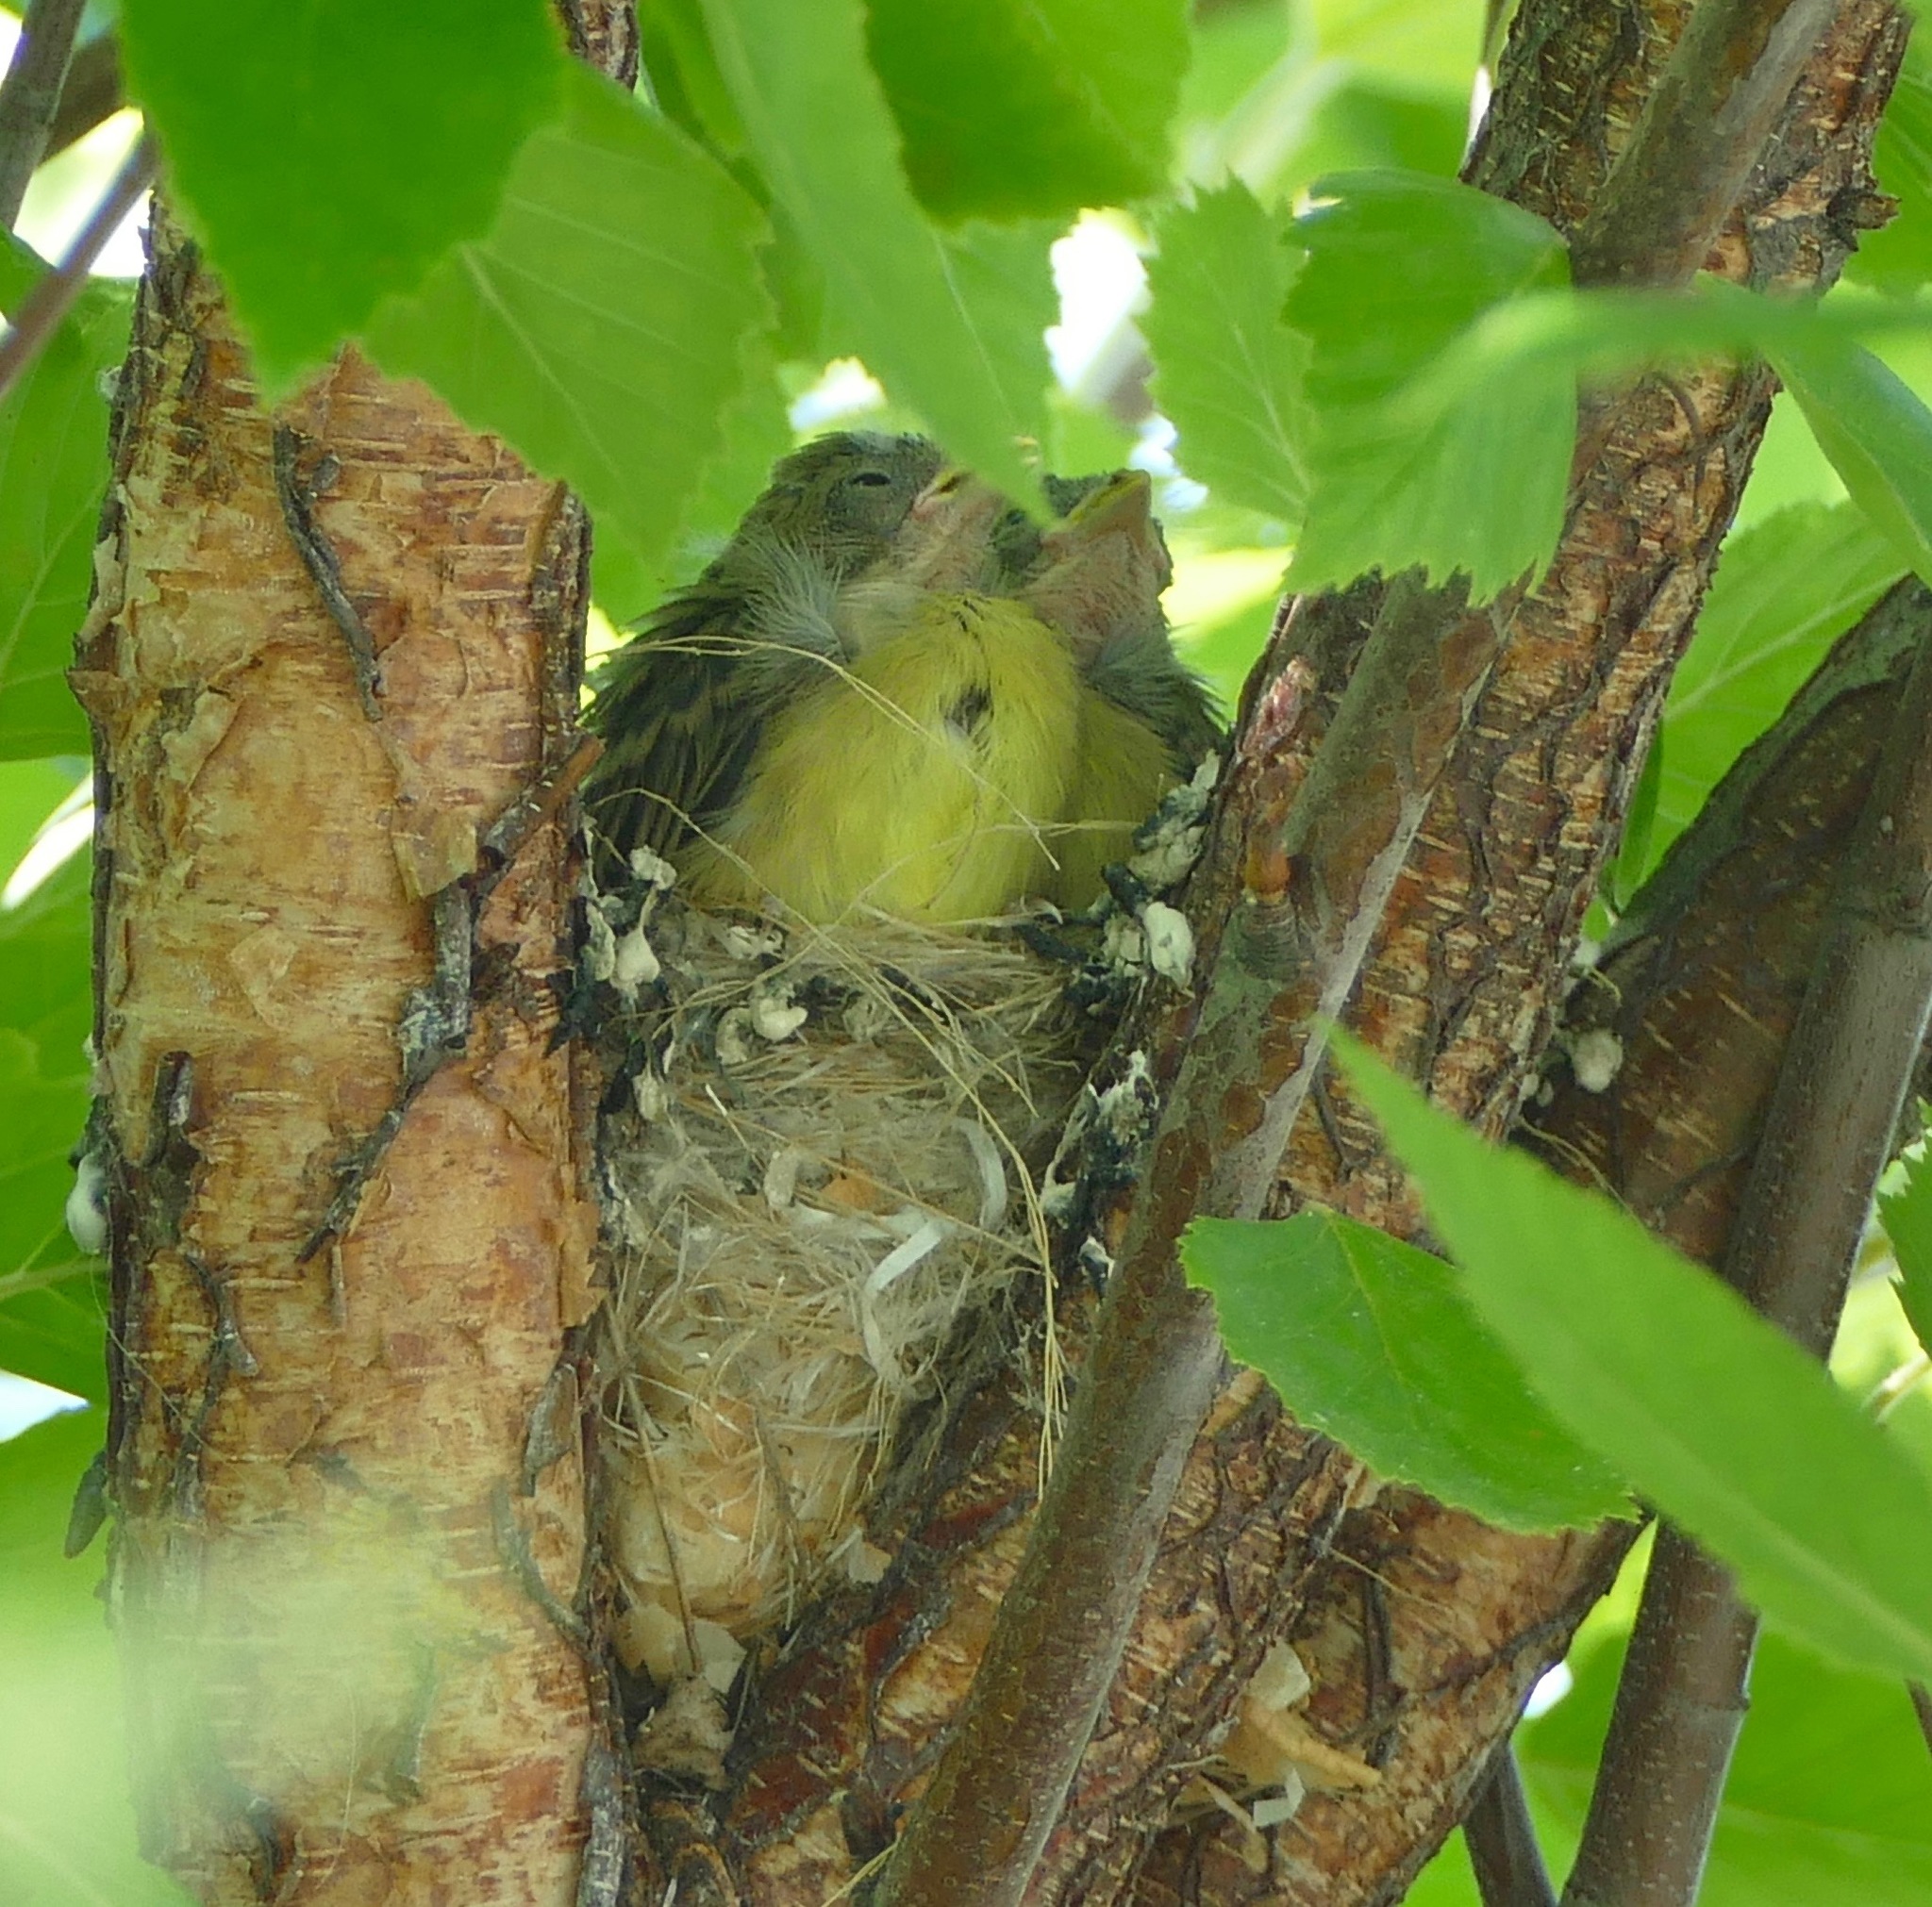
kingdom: Animalia
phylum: Chordata
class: Aves
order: Passeriformes
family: Fringillidae
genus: Spinus
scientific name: Spinus psaltria
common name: Lesser goldfinch
